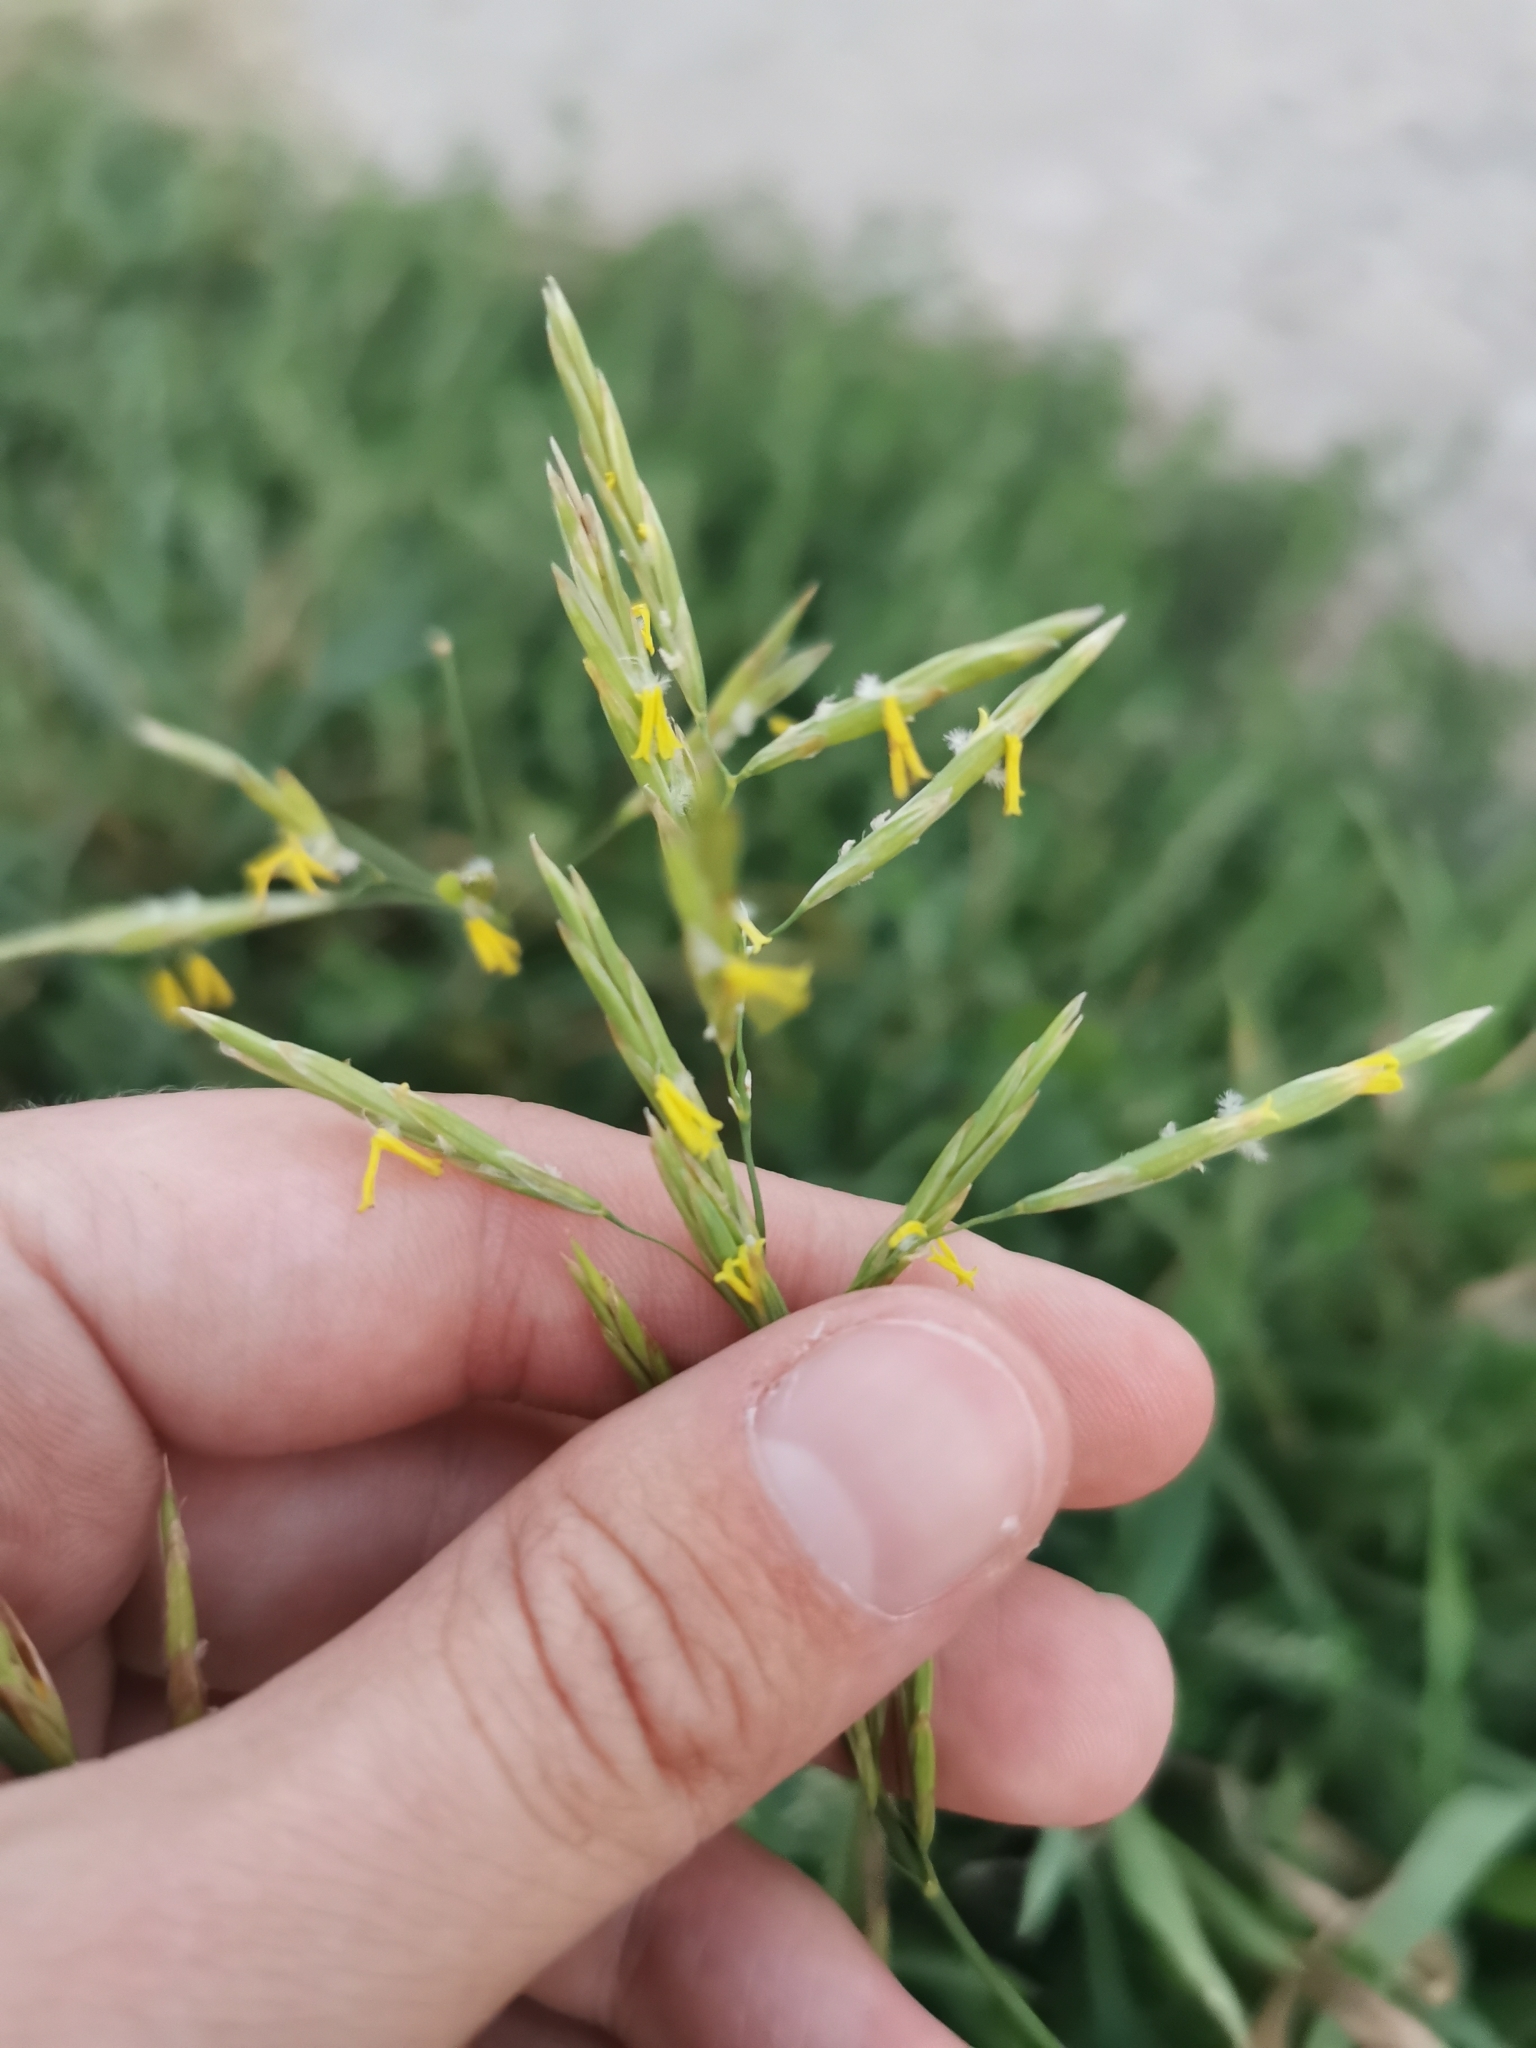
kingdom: Plantae
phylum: Tracheophyta
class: Liliopsida
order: Poales
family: Poaceae
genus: Bromus
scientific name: Bromus inermis
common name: Smooth brome
